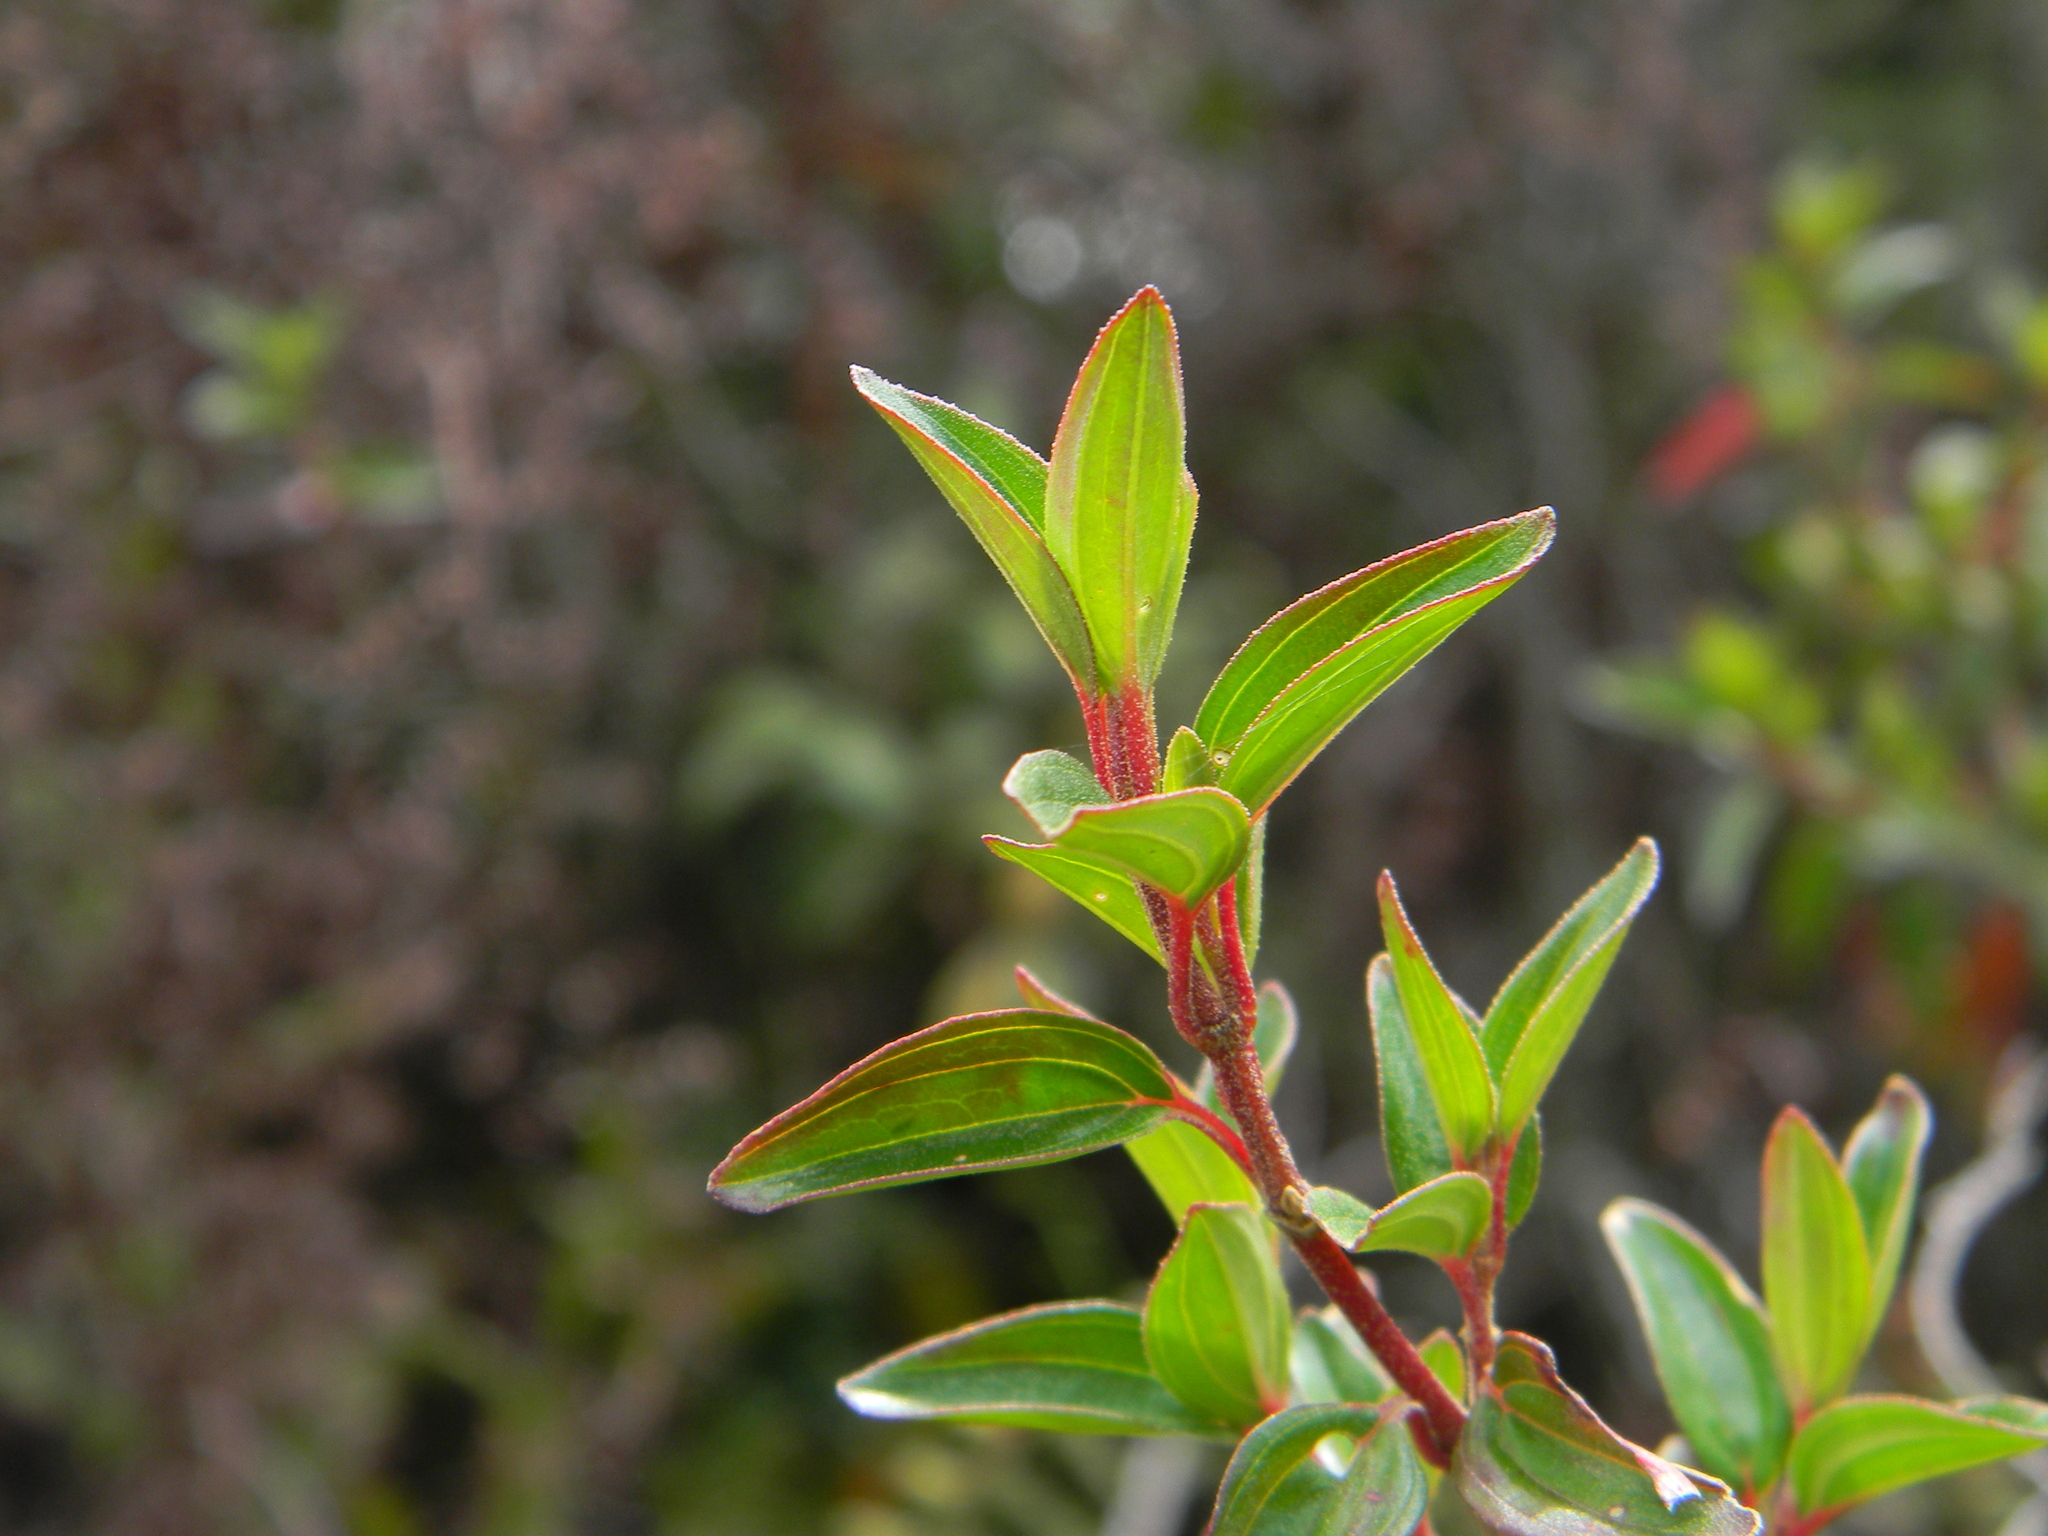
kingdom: Plantae
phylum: Tracheophyta
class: Magnoliopsida
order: Myrtales
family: Melastomataceae
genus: Monochaetum
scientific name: Monochaetum myrtoideum
